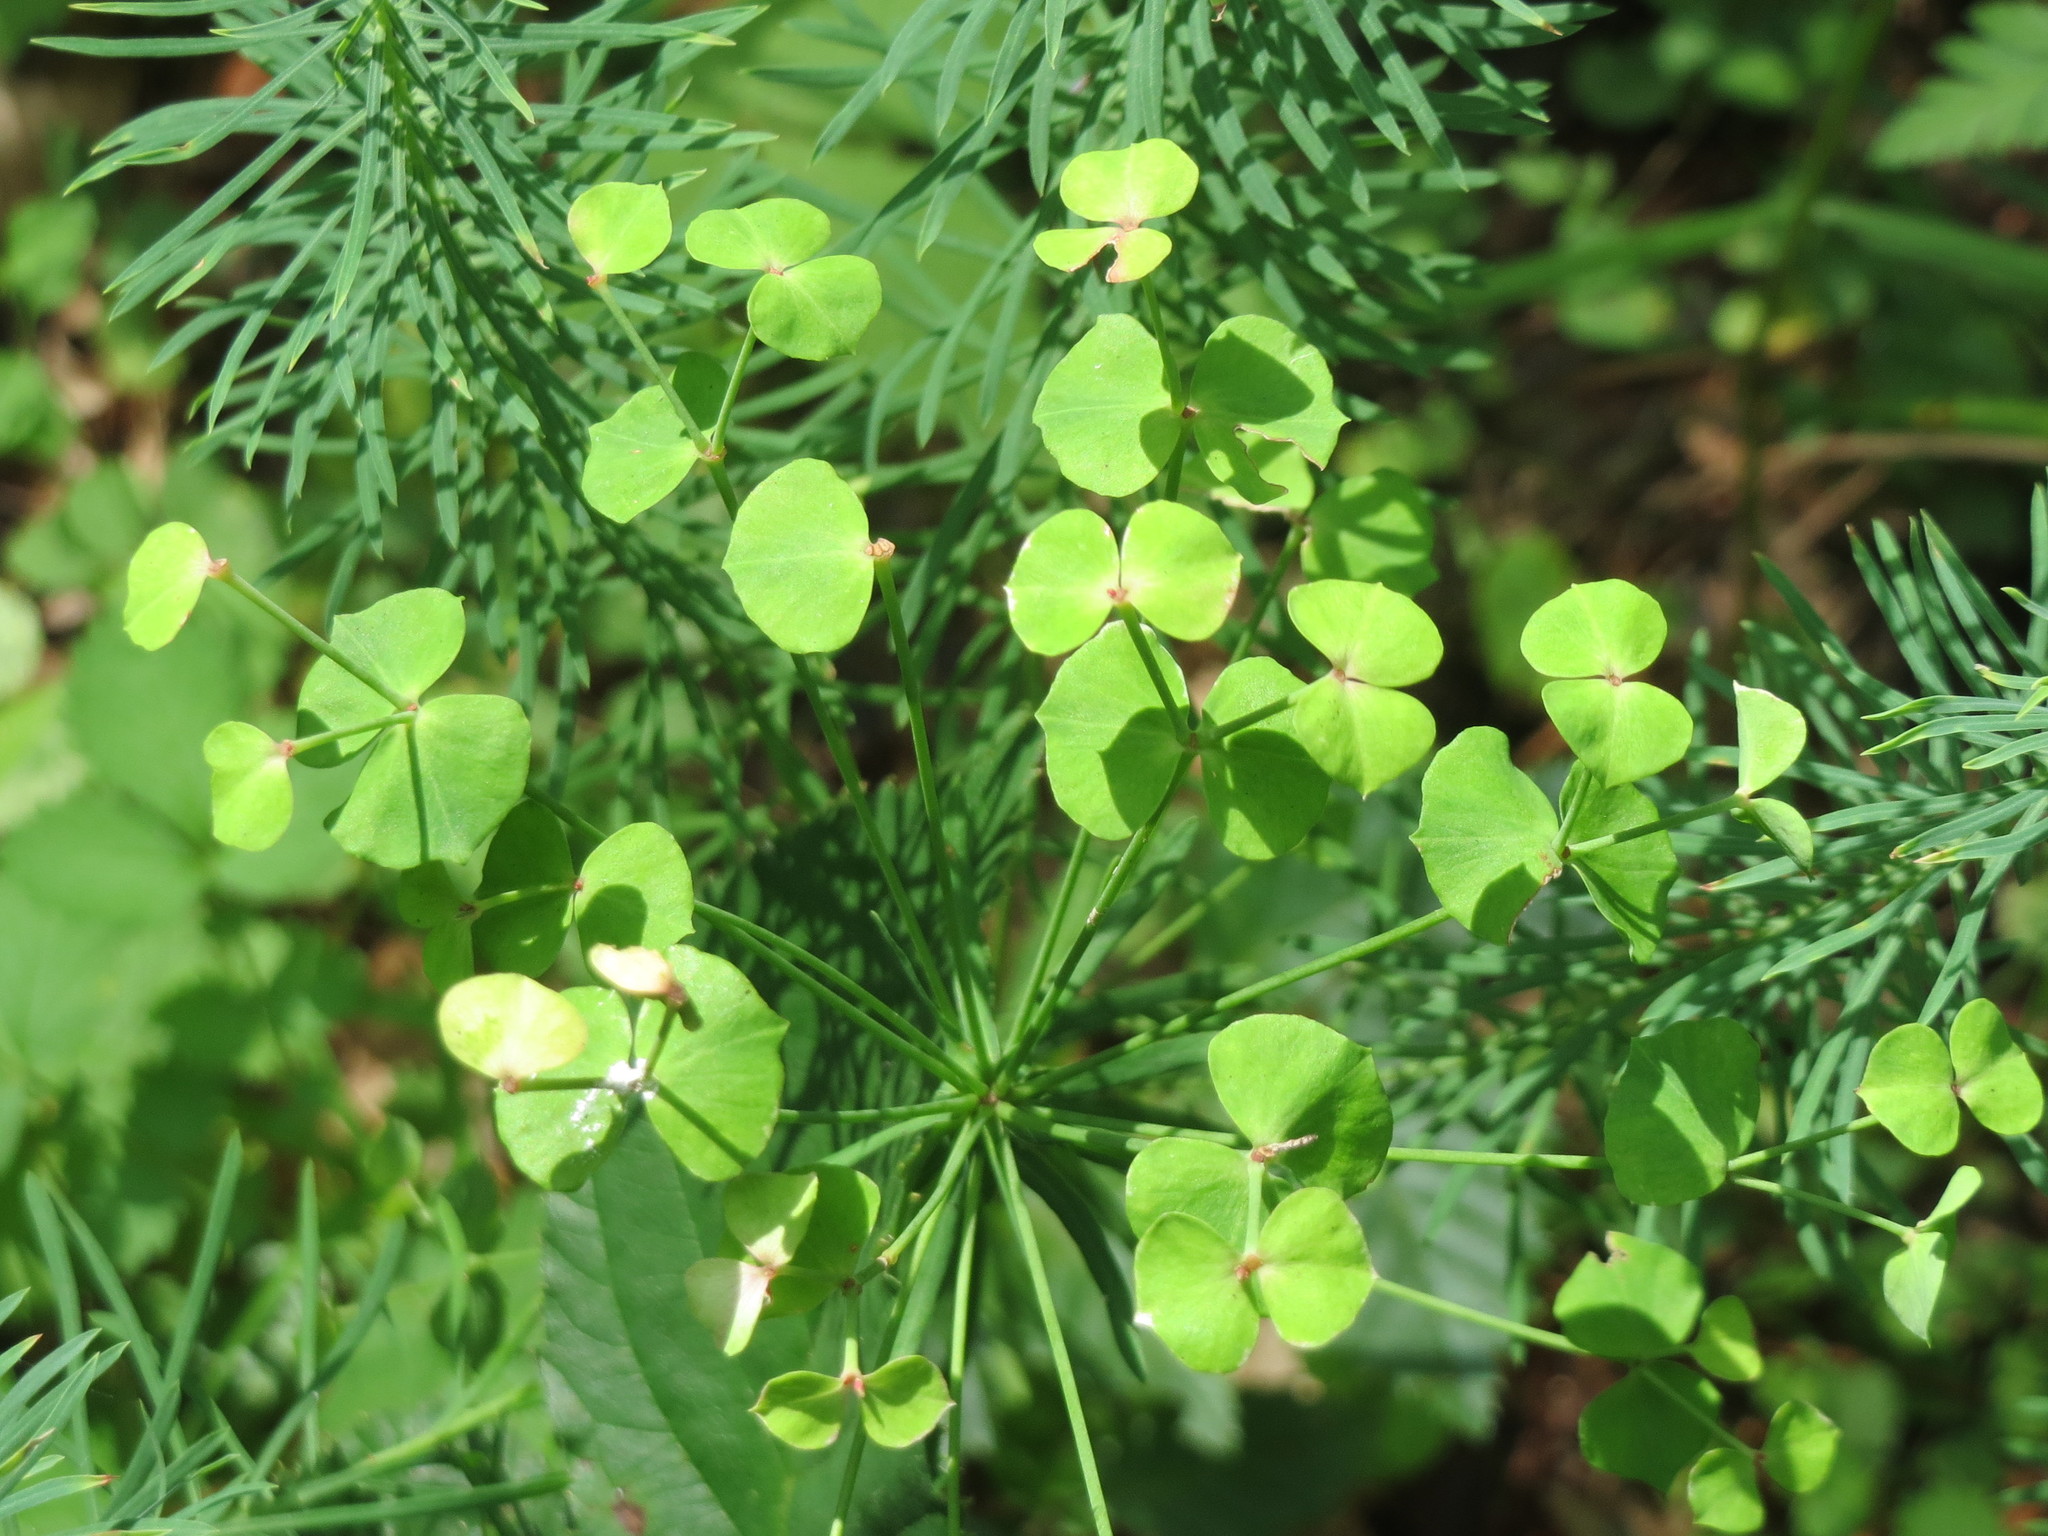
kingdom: Plantae
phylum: Tracheophyta
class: Magnoliopsida
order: Malpighiales
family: Euphorbiaceae
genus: Euphorbia
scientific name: Euphorbia cyparissias
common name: Cypress spurge
